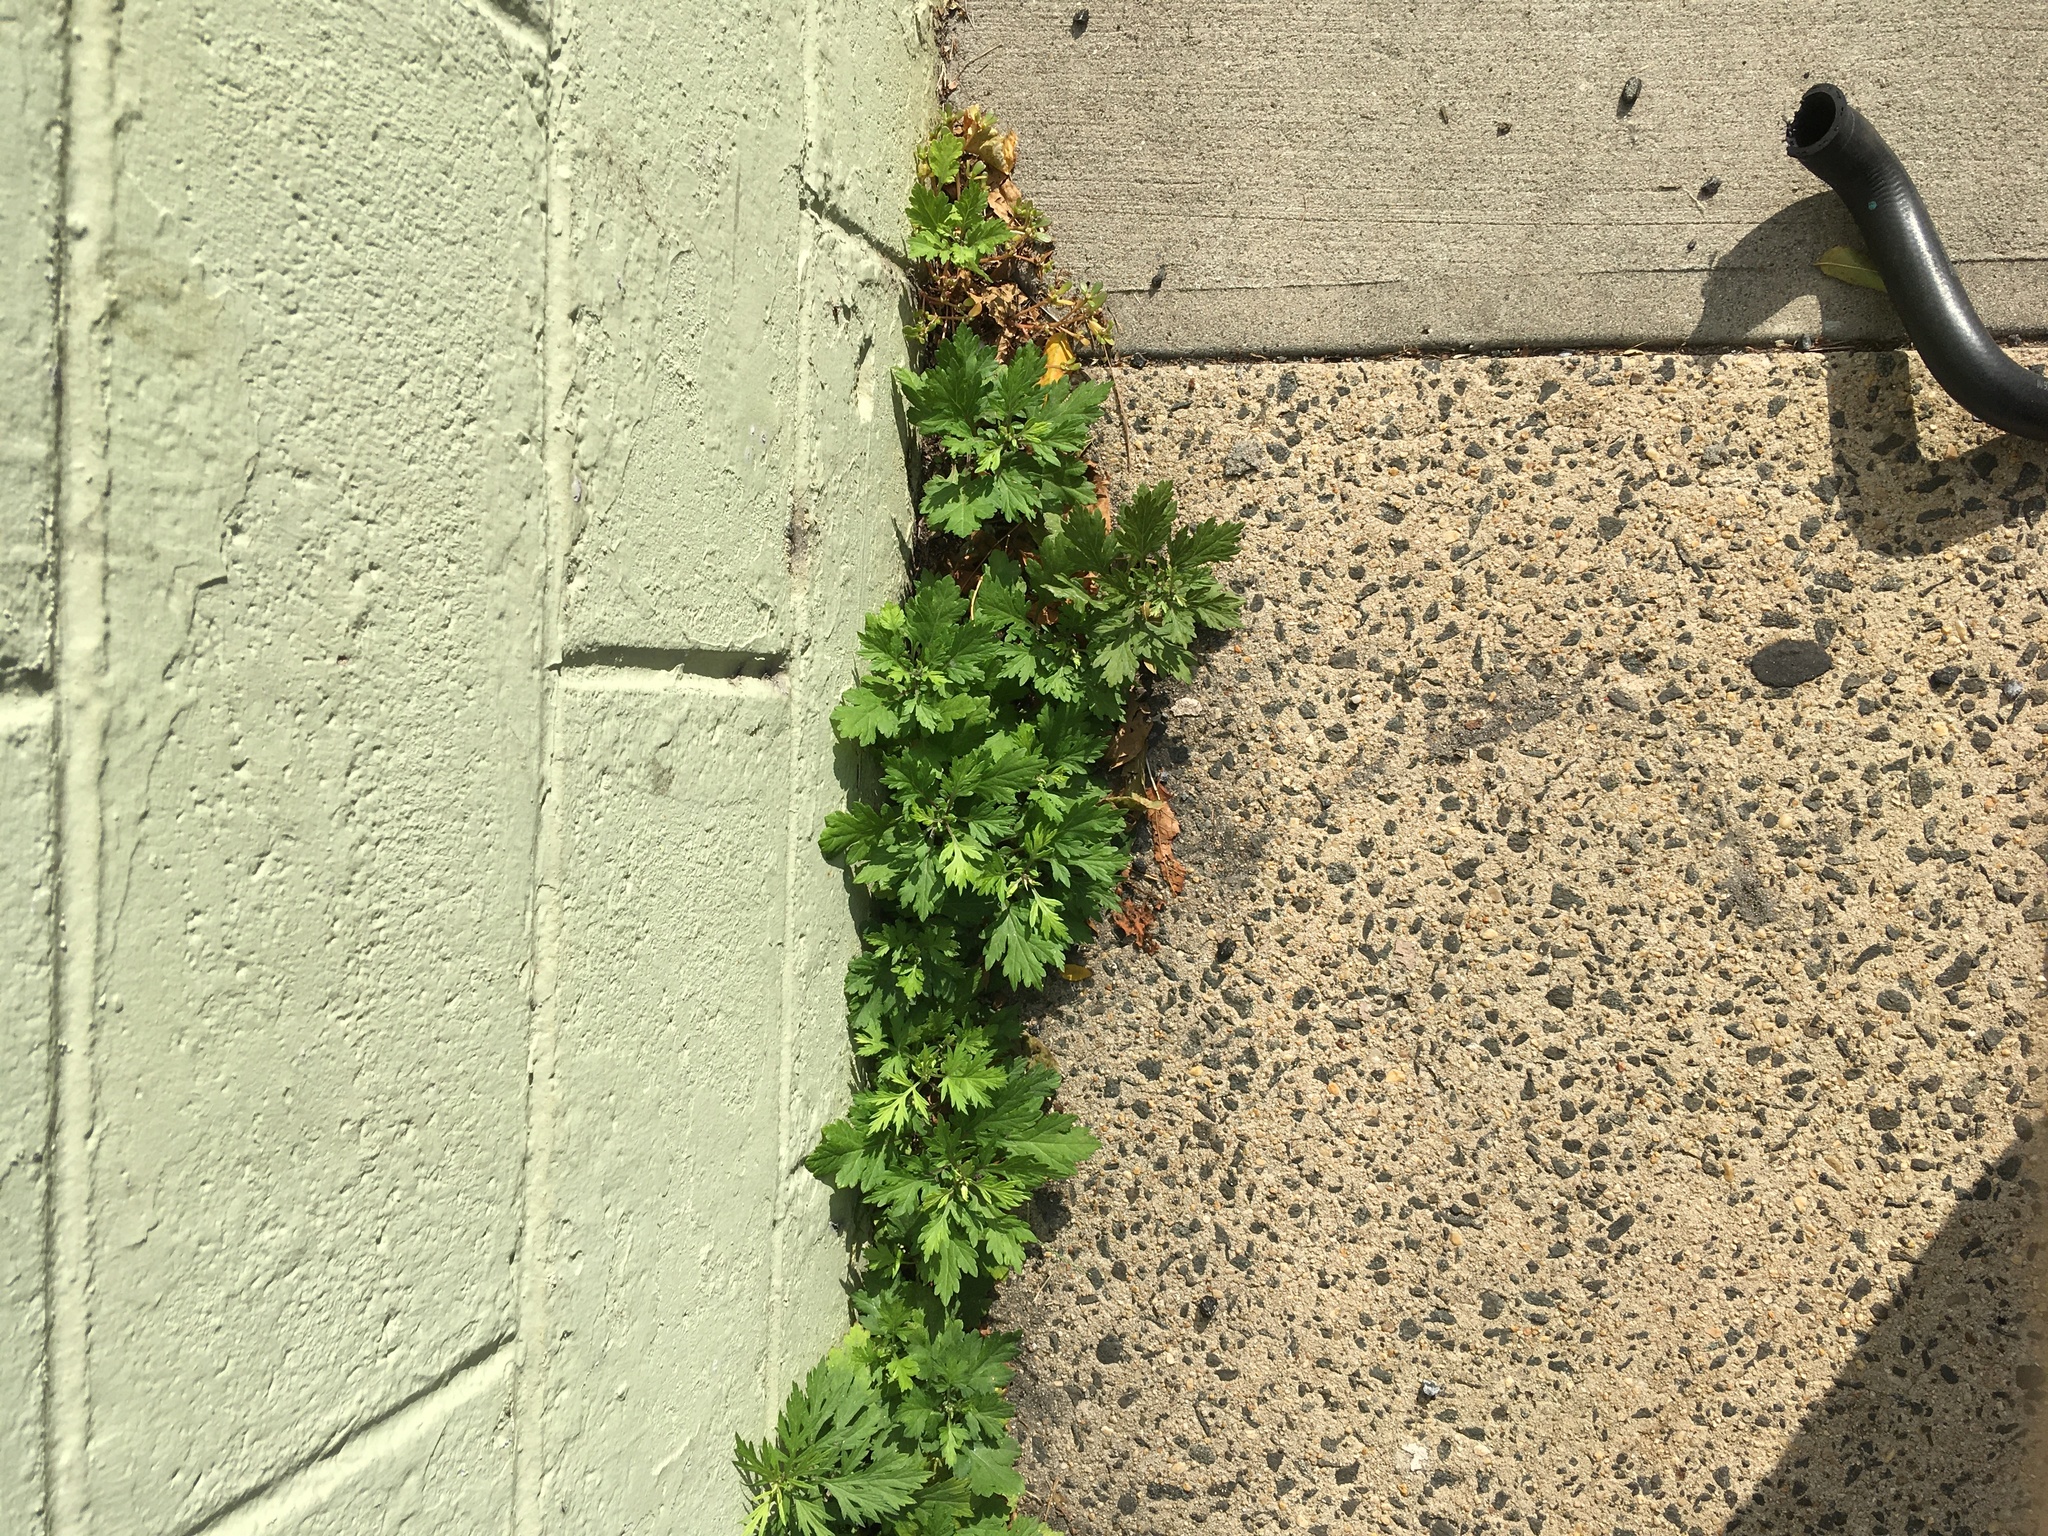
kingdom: Plantae
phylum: Tracheophyta
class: Magnoliopsida
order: Asterales
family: Asteraceae
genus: Artemisia
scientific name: Artemisia vulgaris
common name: Mugwort
